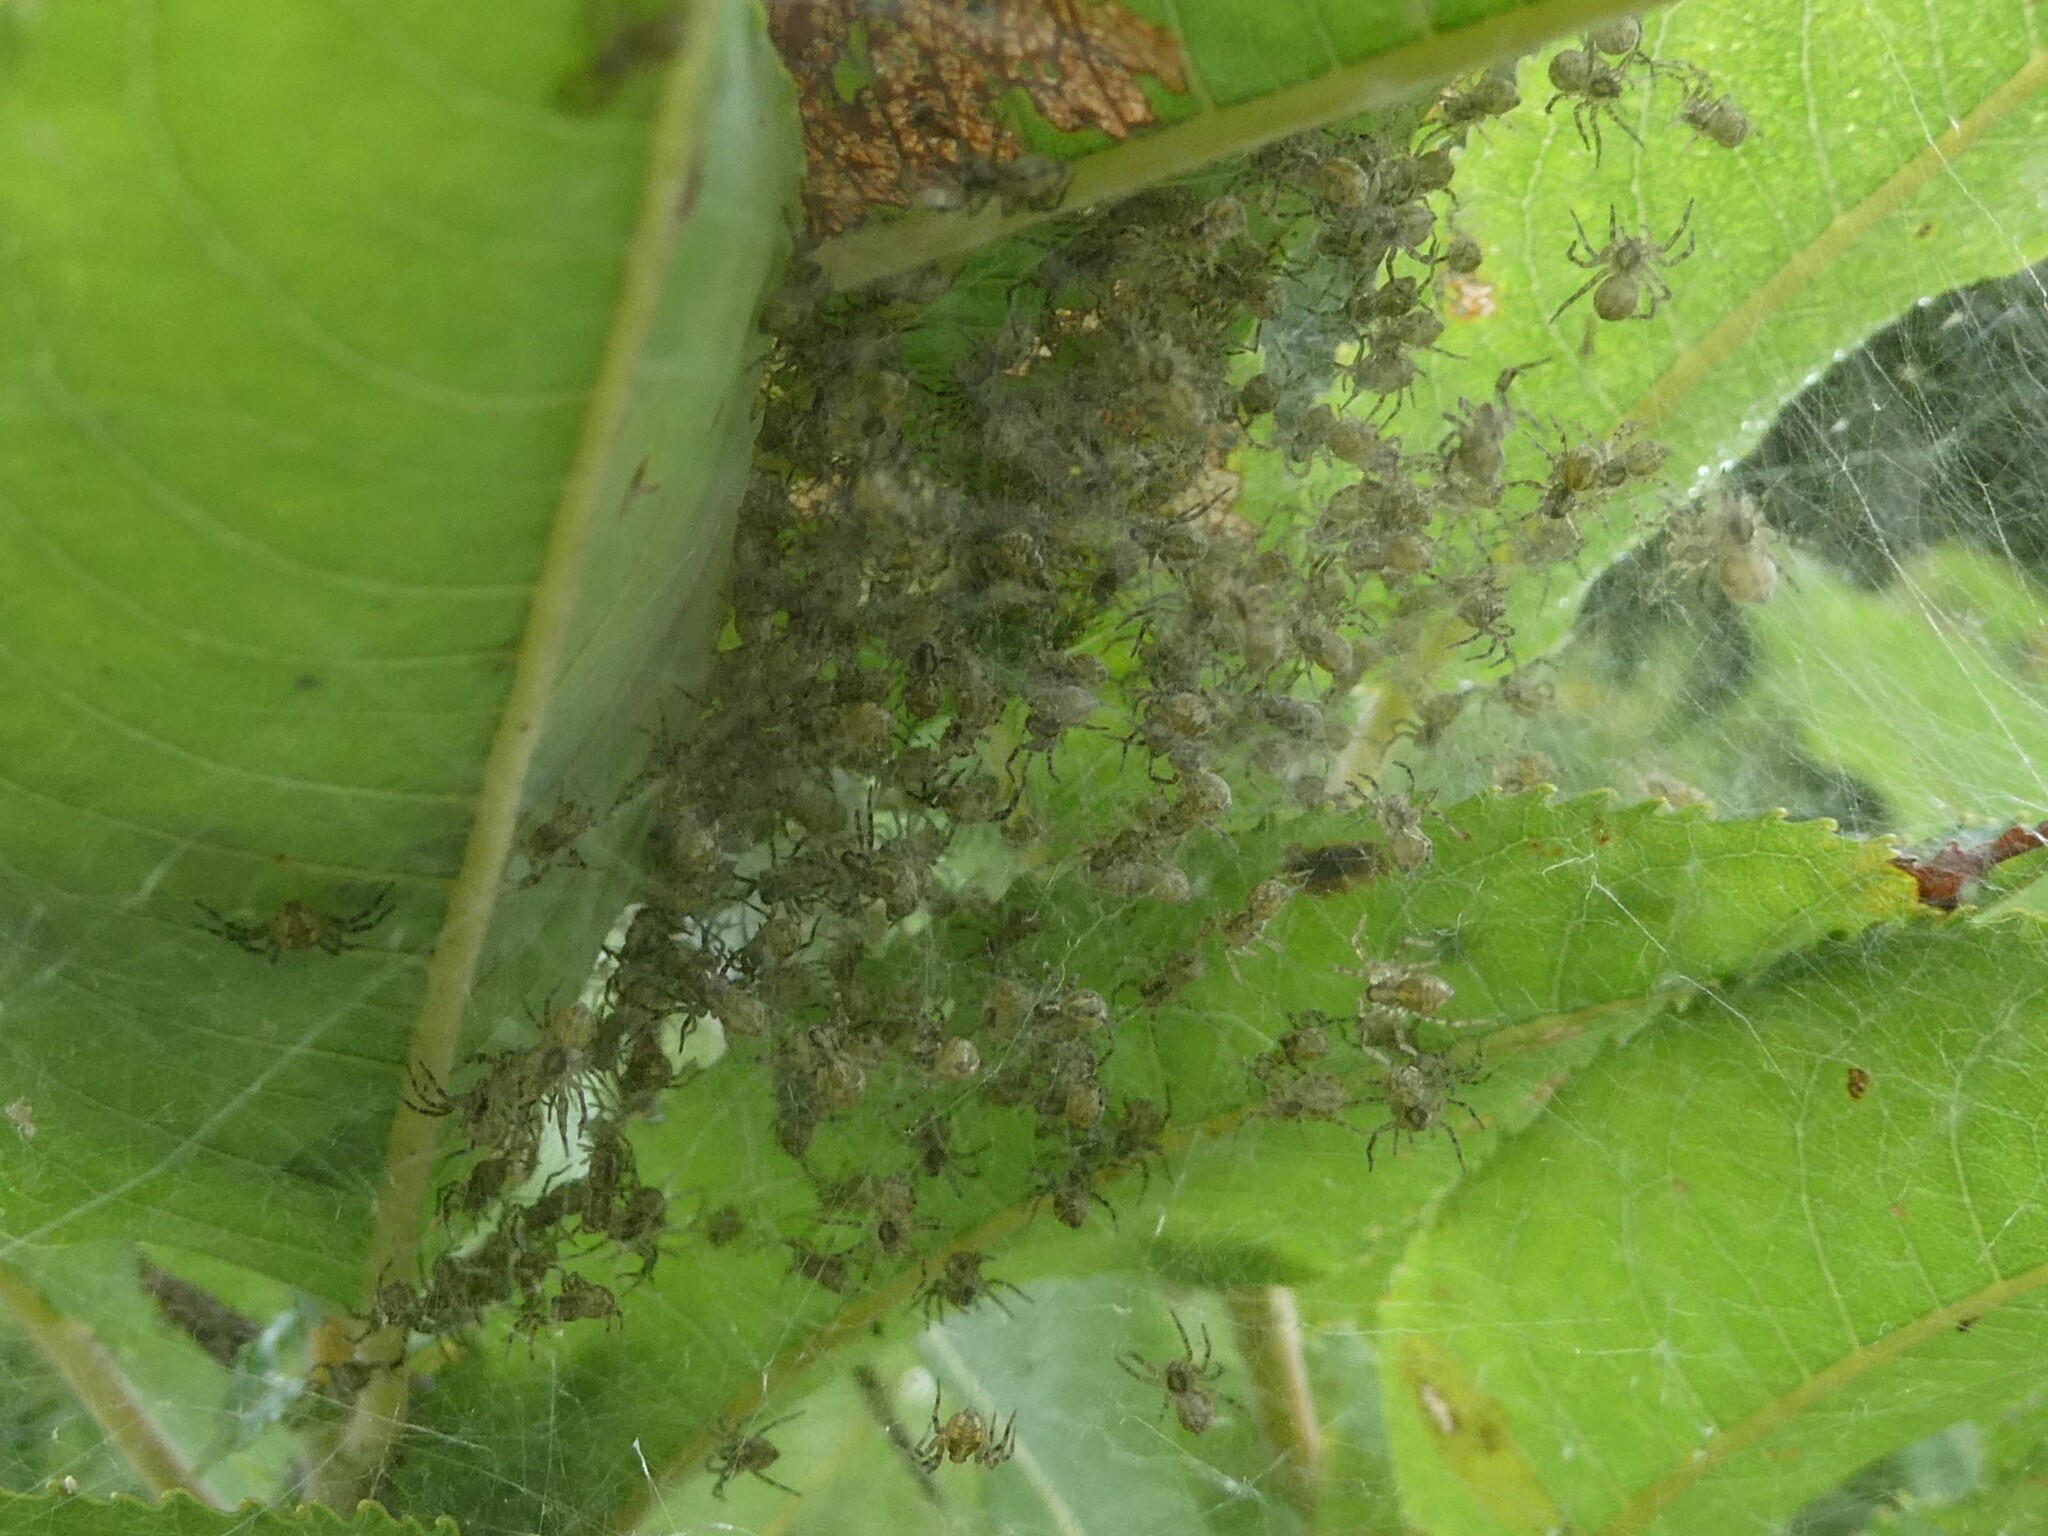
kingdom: Animalia
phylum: Arthropoda
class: Arachnida
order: Araneae
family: Pisauridae
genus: Dolomedes
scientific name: Dolomedes scriptus
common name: Striped fishing spider
